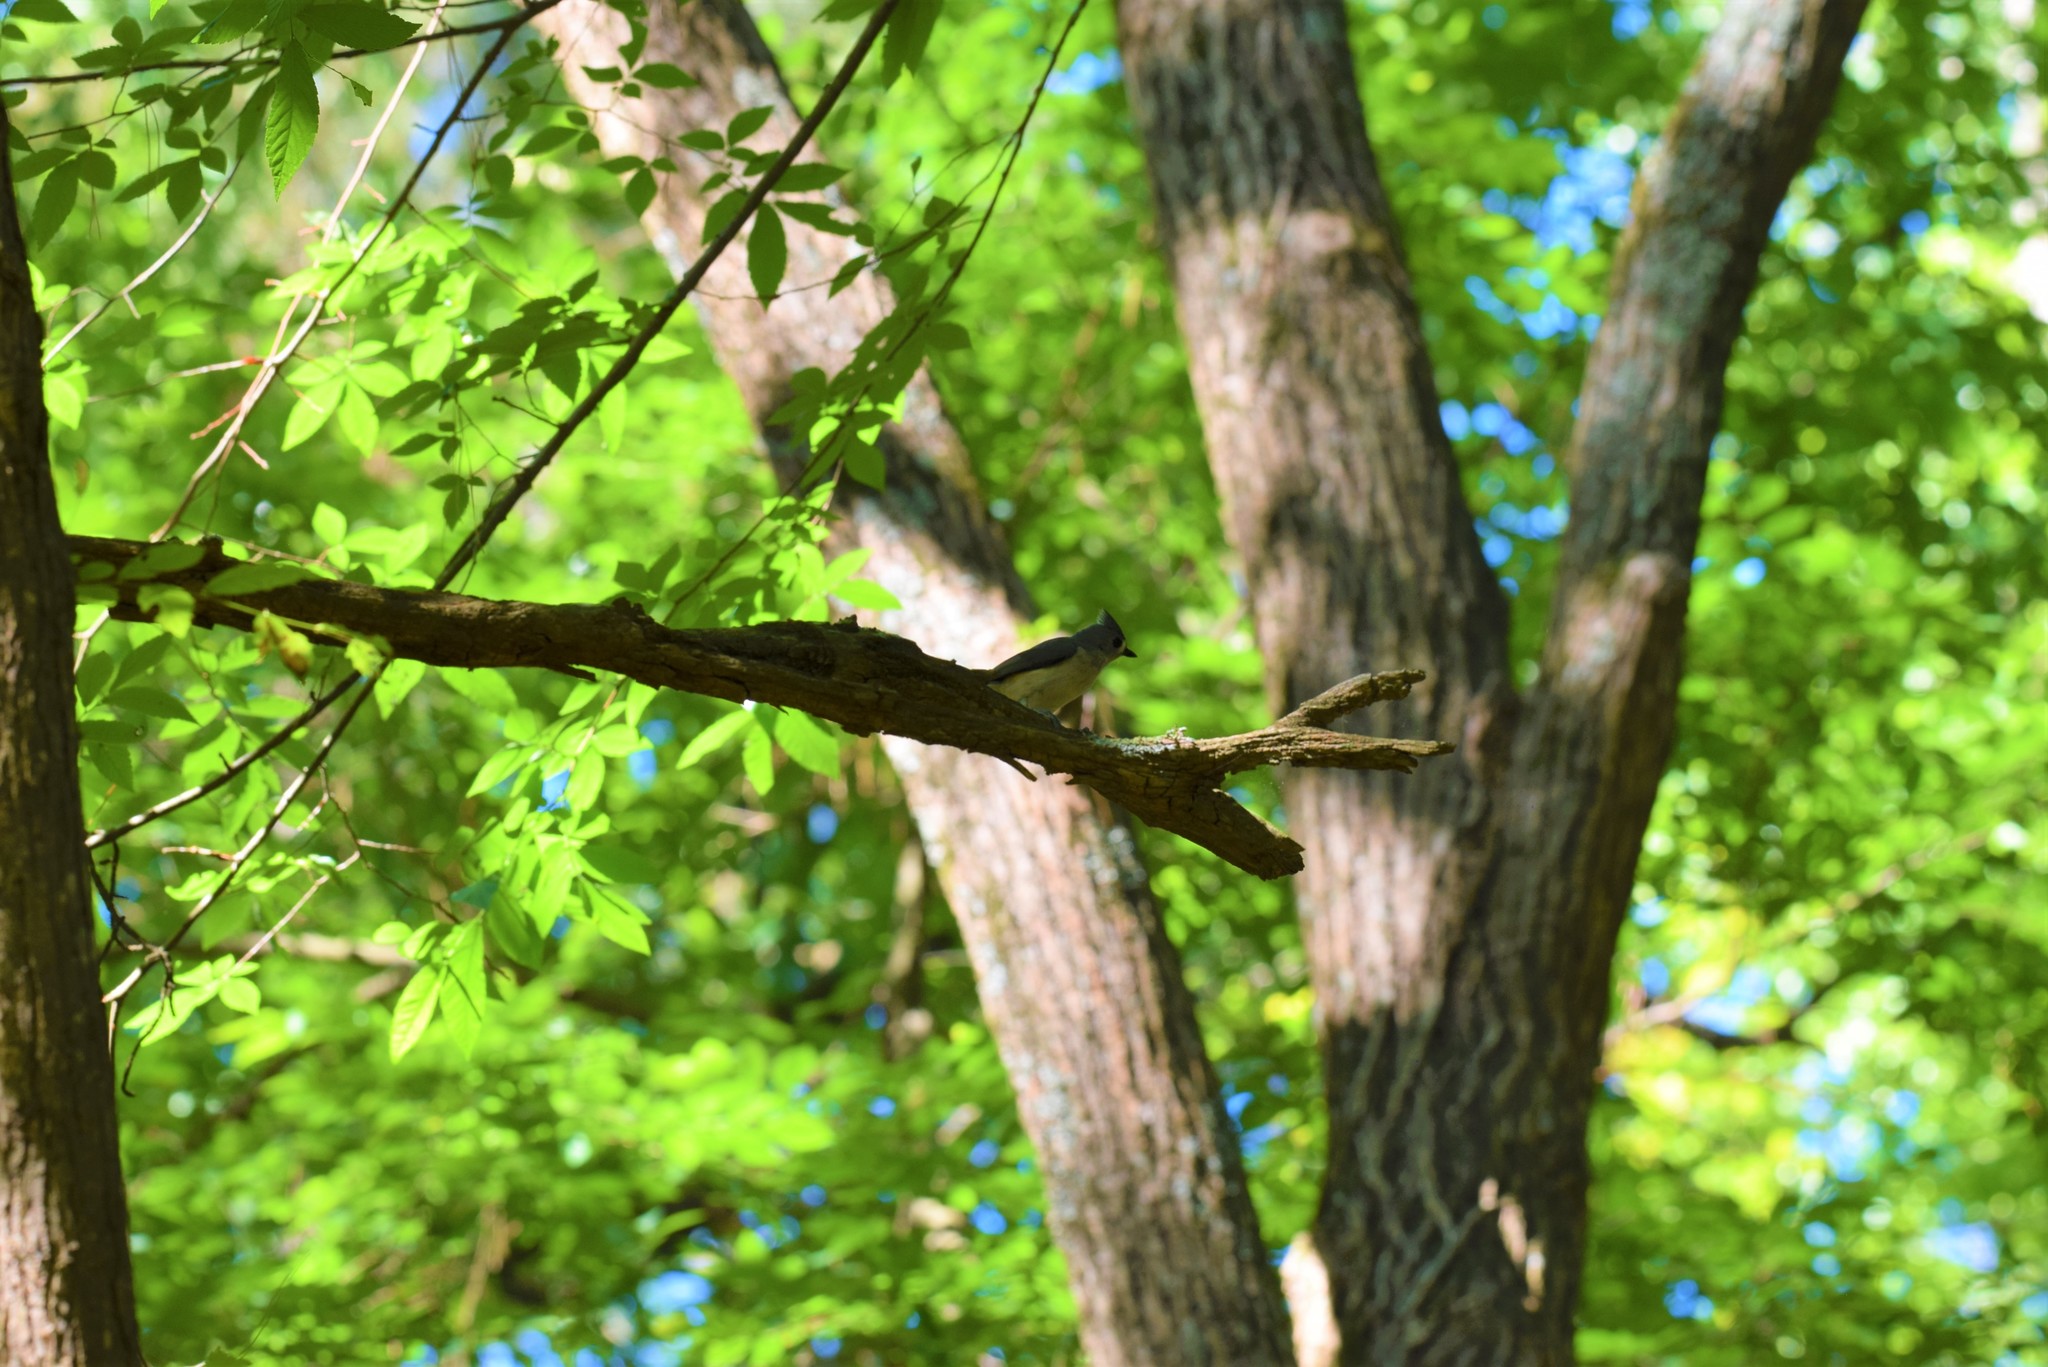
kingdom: Animalia
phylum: Chordata
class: Aves
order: Passeriformes
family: Paridae
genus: Baeolophus
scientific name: Baeolophus bicolor
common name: Tufted titmouse
